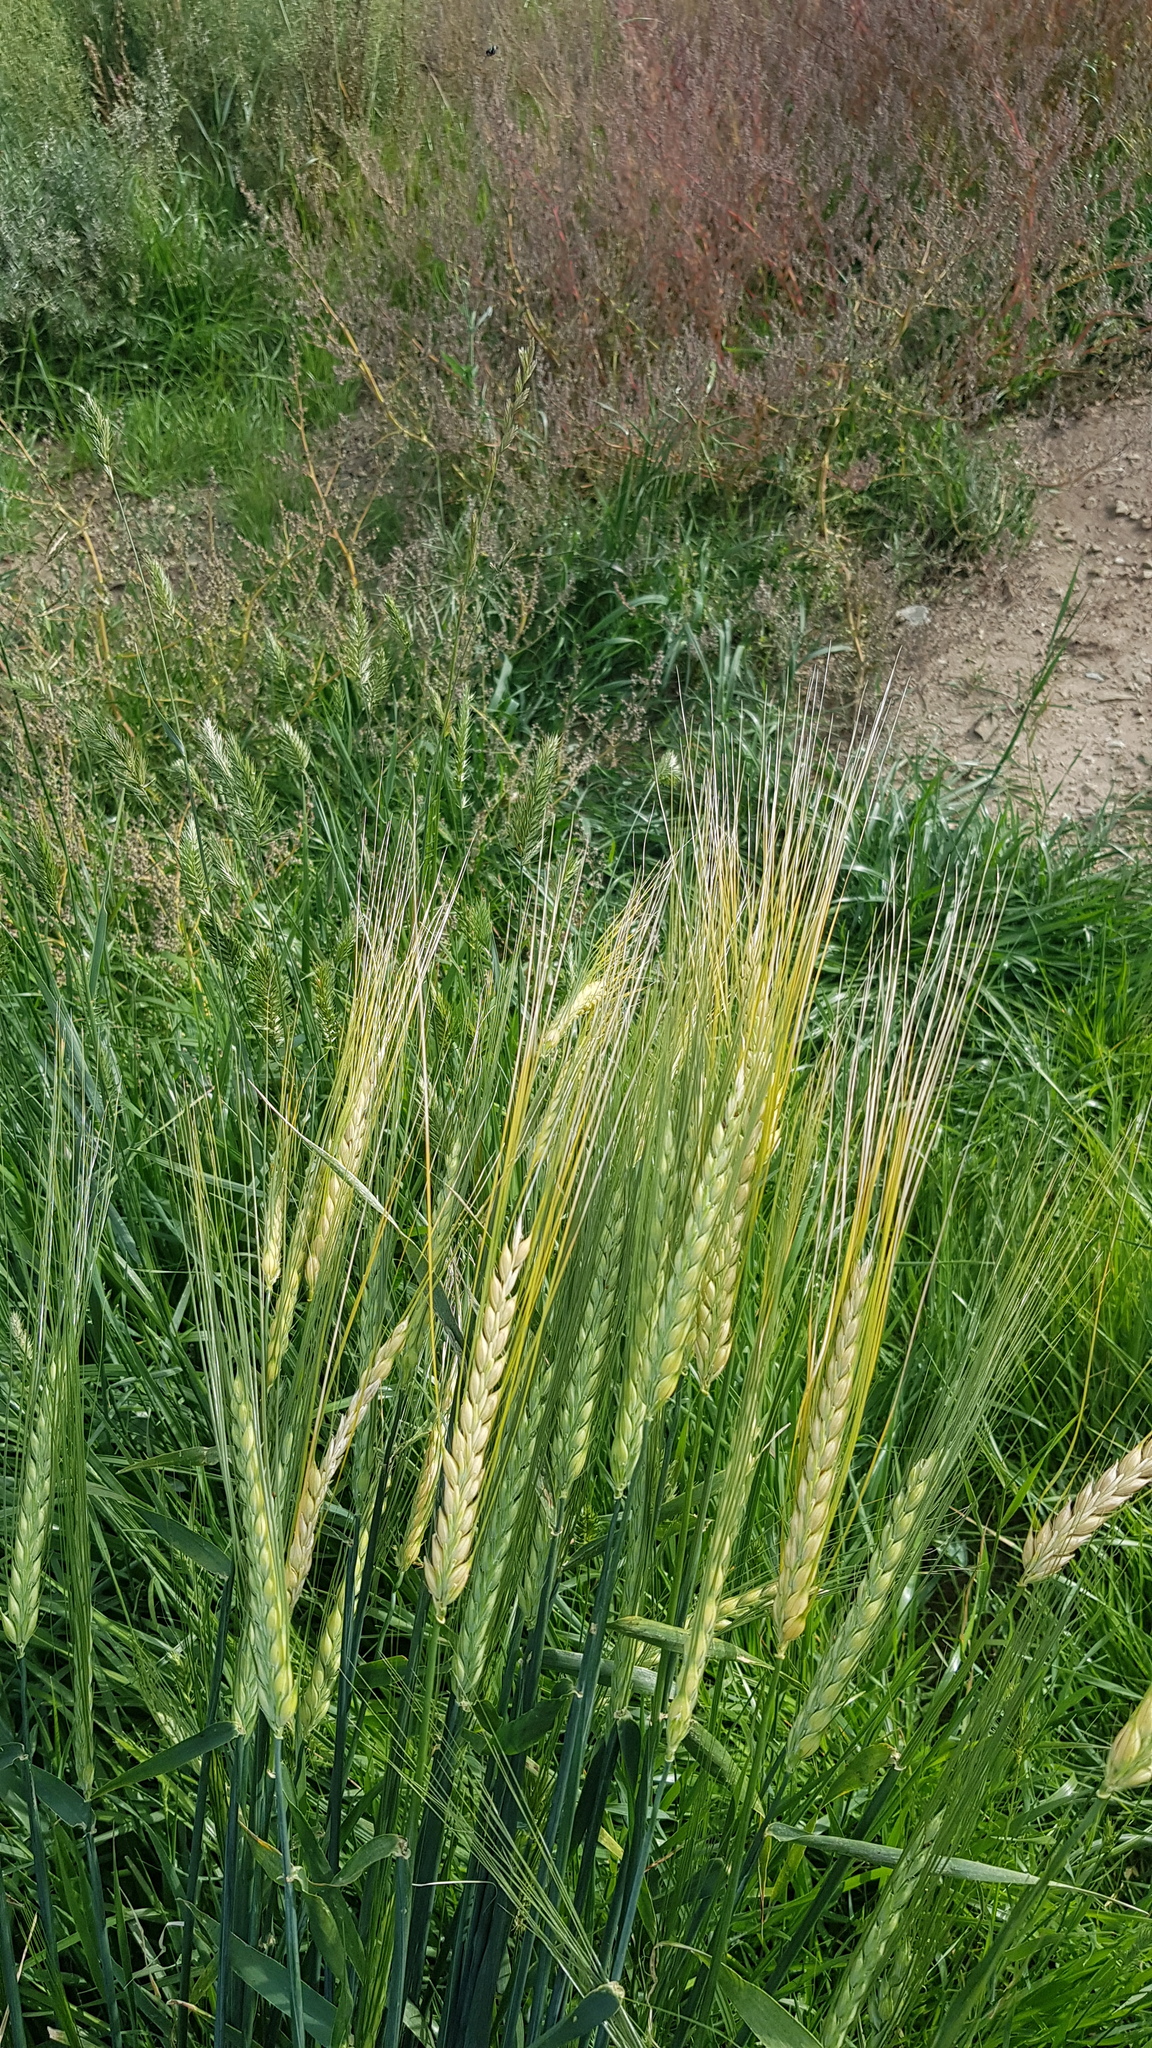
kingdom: Plantae
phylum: Tracheophyta
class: Liliopsida
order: Poales
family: Poaceae
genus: Triticum
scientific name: Triticum aestivum
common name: Common wheat
